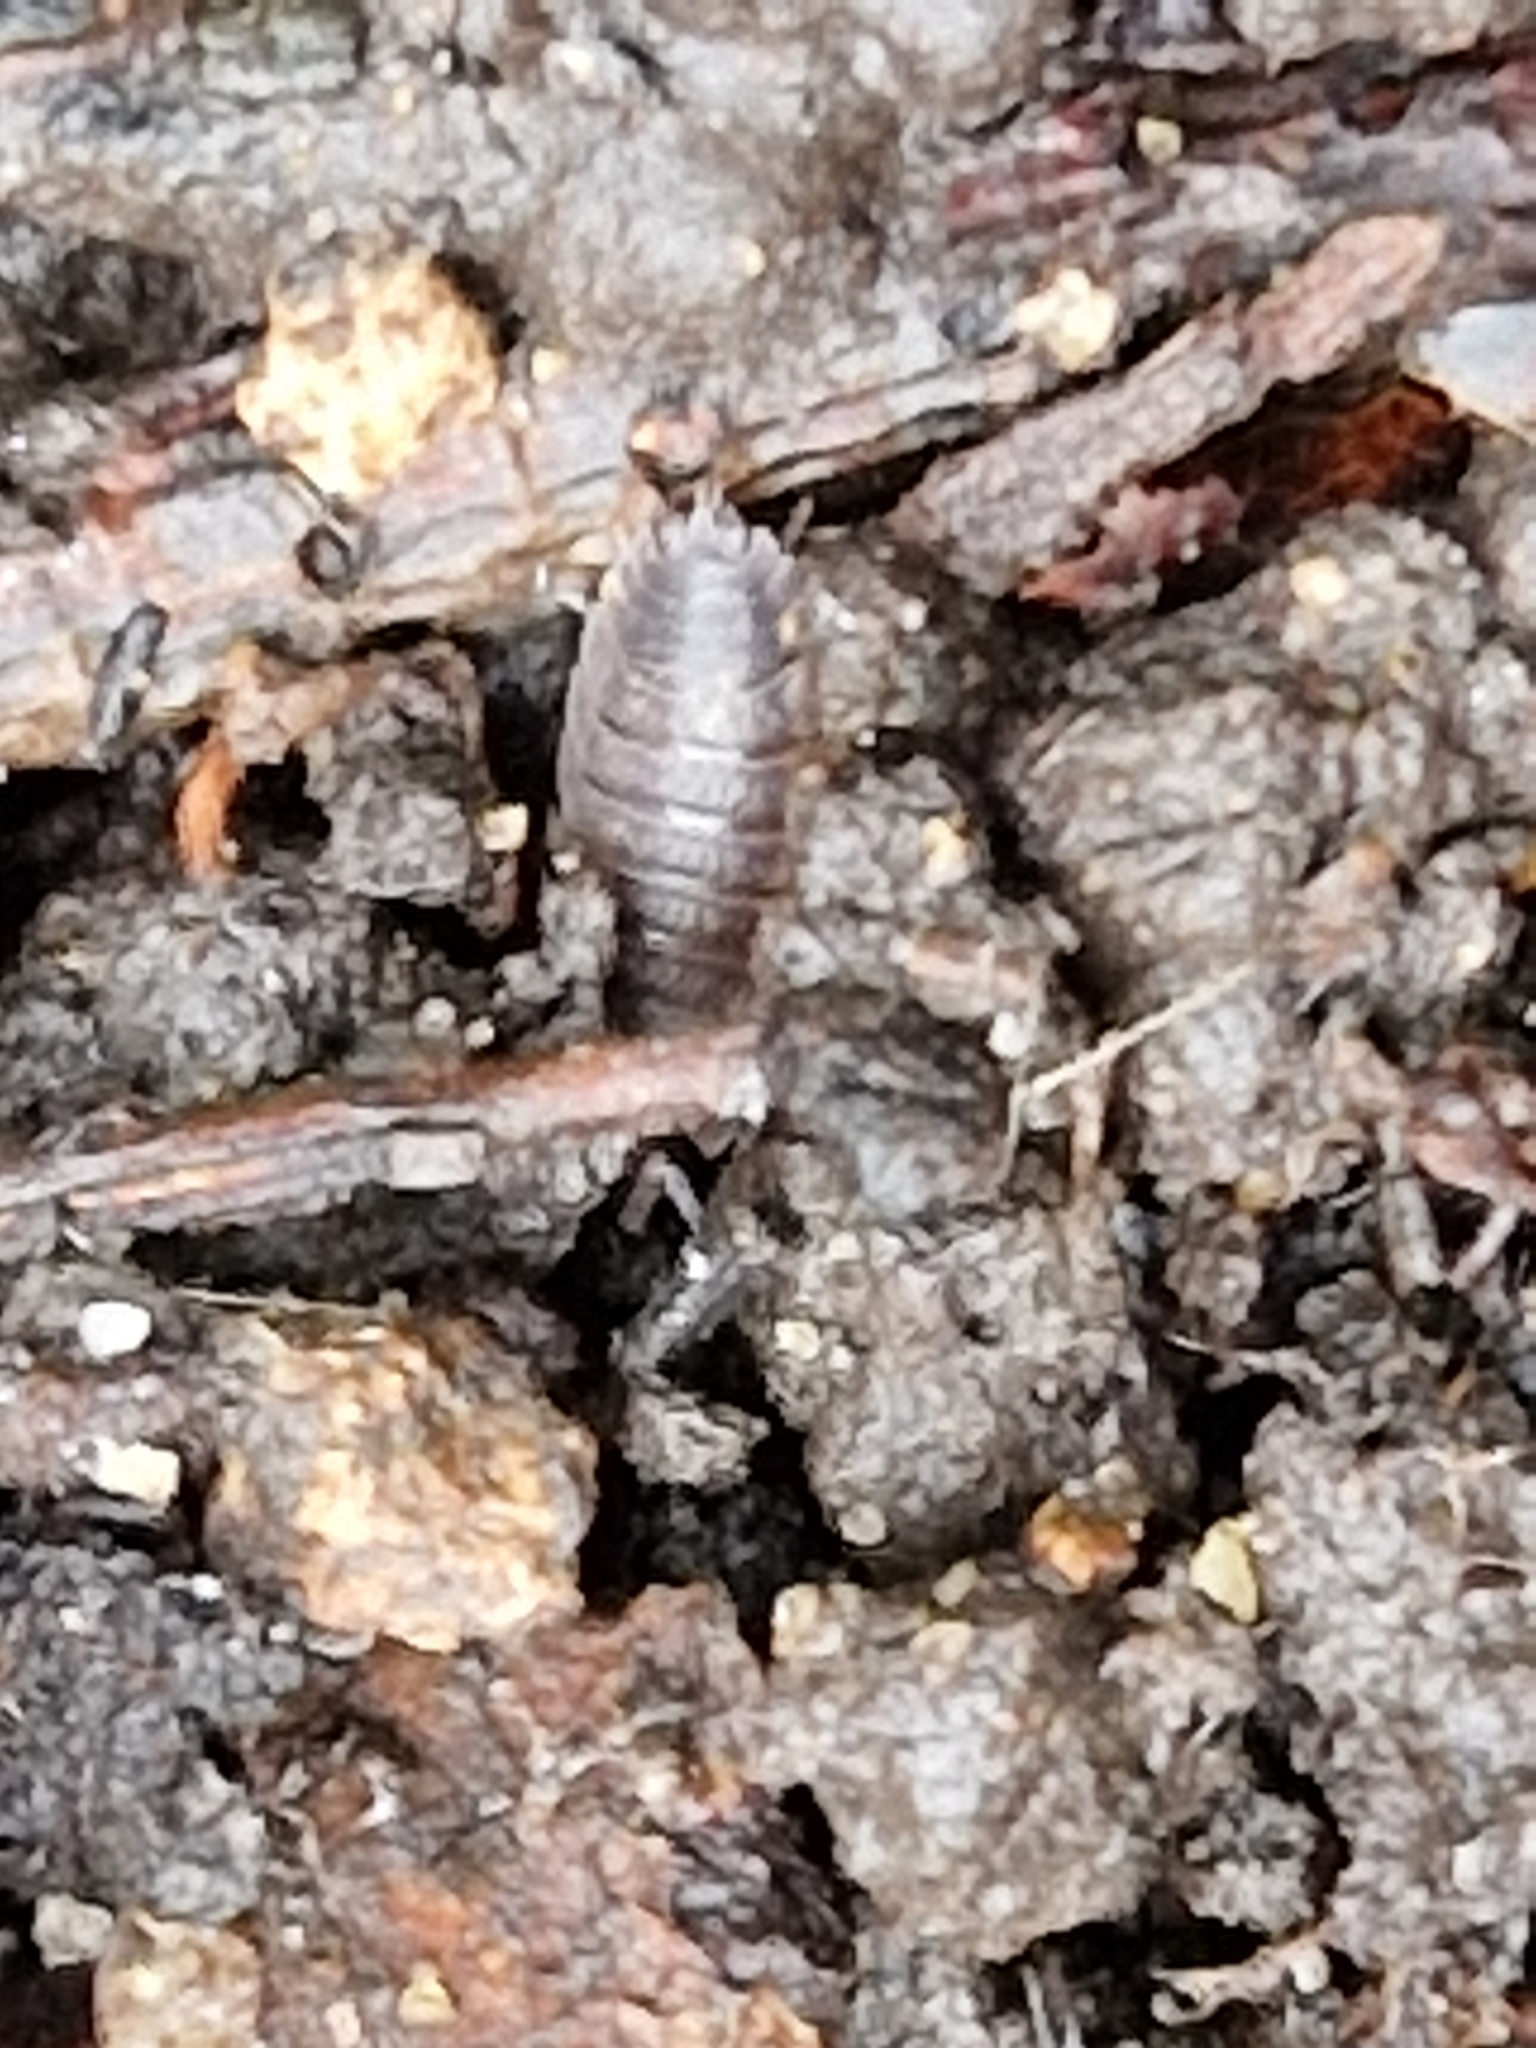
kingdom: Animalia
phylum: Arthropoda
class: Malacostraca
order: Isopoda
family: Porcellionidae
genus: Porcellio
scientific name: Porcellio scaber
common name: Common rough woodlouse
